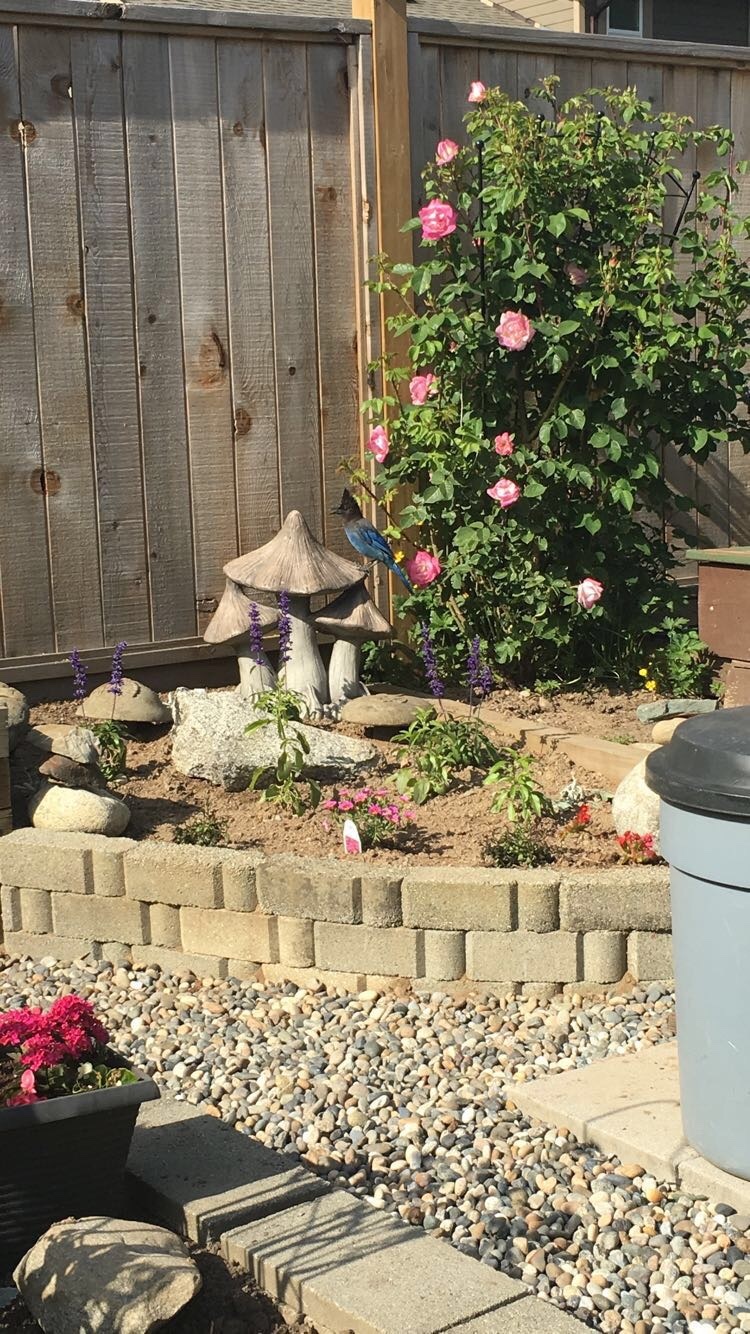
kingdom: Animalia
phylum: Chordata
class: Aves
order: Passeriformes
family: Corvidae
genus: Cyanocitta
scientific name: Cyanocitta stelleri
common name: Steller's jay
